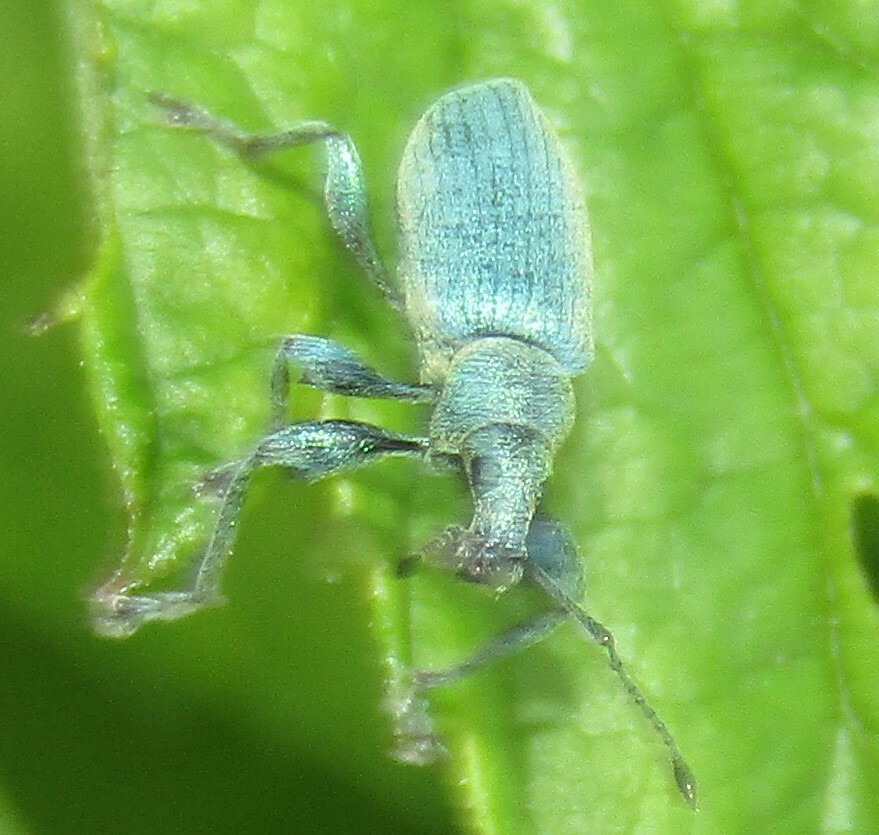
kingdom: Animalia
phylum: Arthropoda
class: Insecta
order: Coleoptera
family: Curculionidae
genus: Phyllobius
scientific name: Phyllobius pomaceus
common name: Green nettle weevil
